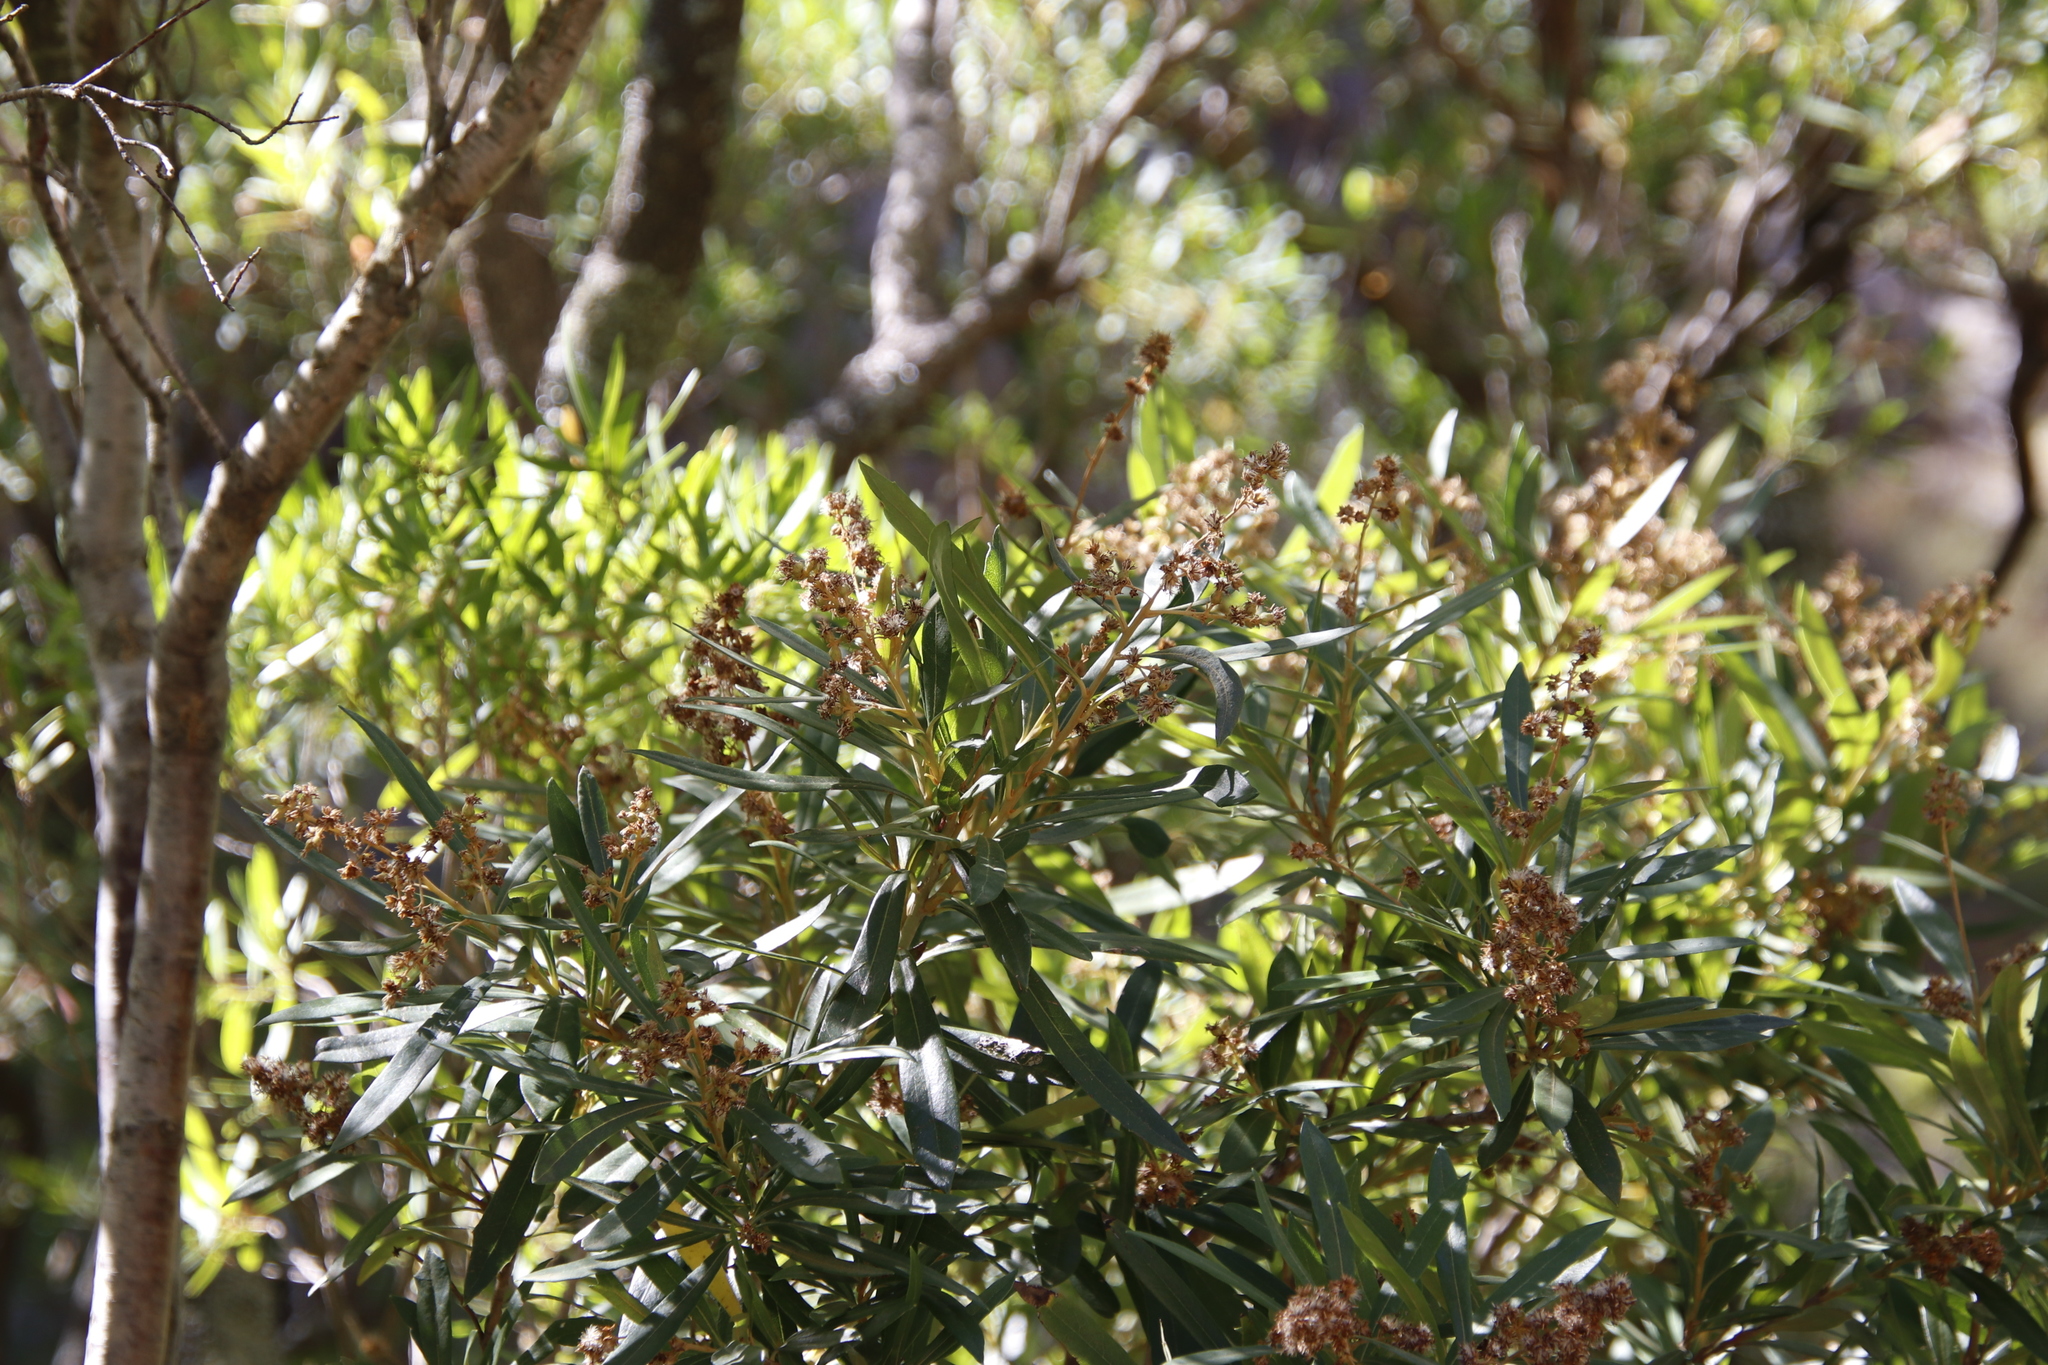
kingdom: Plantae
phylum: Tracheophyta
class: Magnoliopsida
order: Asterales
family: Asteraceae
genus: Brachylaena
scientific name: Brachylaena neriifolia
